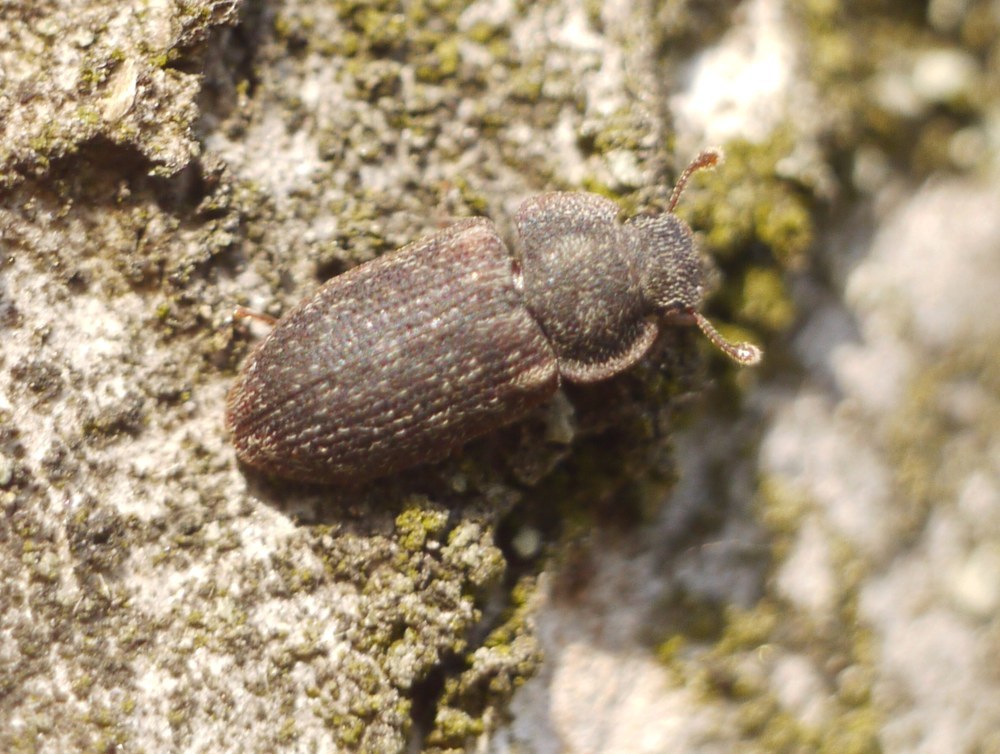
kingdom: Animalia
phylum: Arthropoda
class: Insecta
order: Coleoptera
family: Zopheridae
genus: Colobicus
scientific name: Colobicus hirtus
